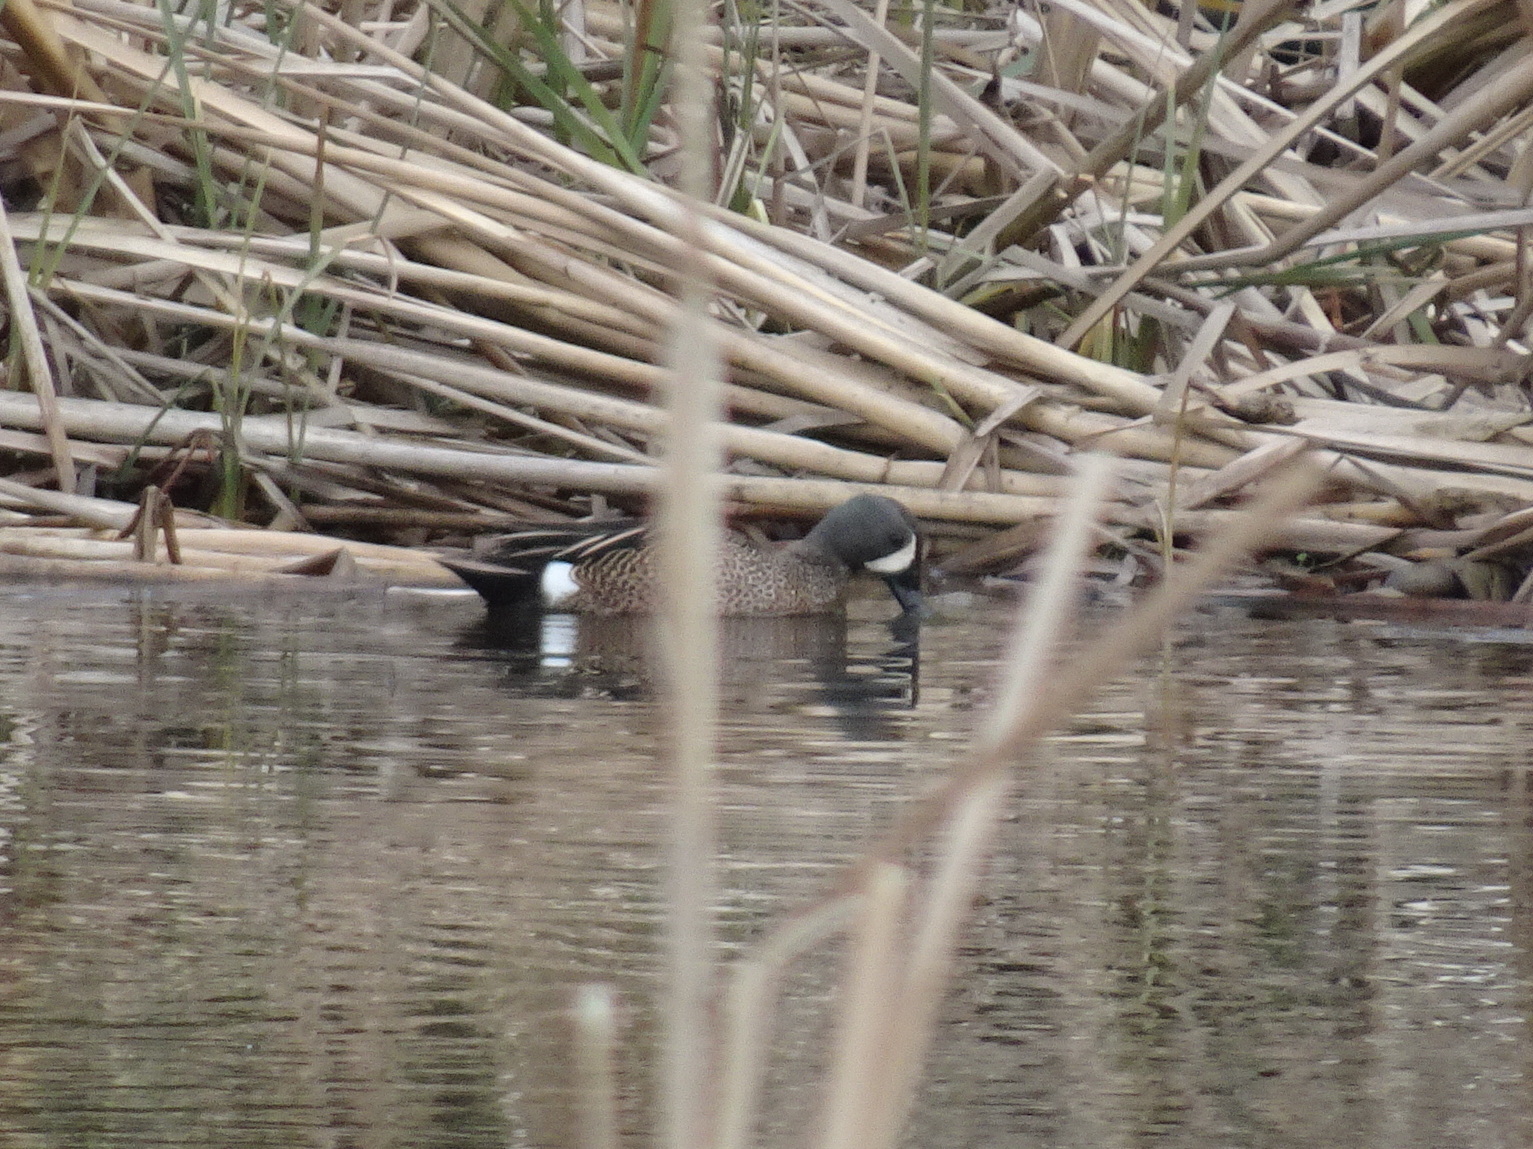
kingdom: Animalia
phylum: Chordata
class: Aves
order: Anseriformes
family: Anatidae
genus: Spatula
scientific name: Spatula discors
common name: Blue-winged teal
